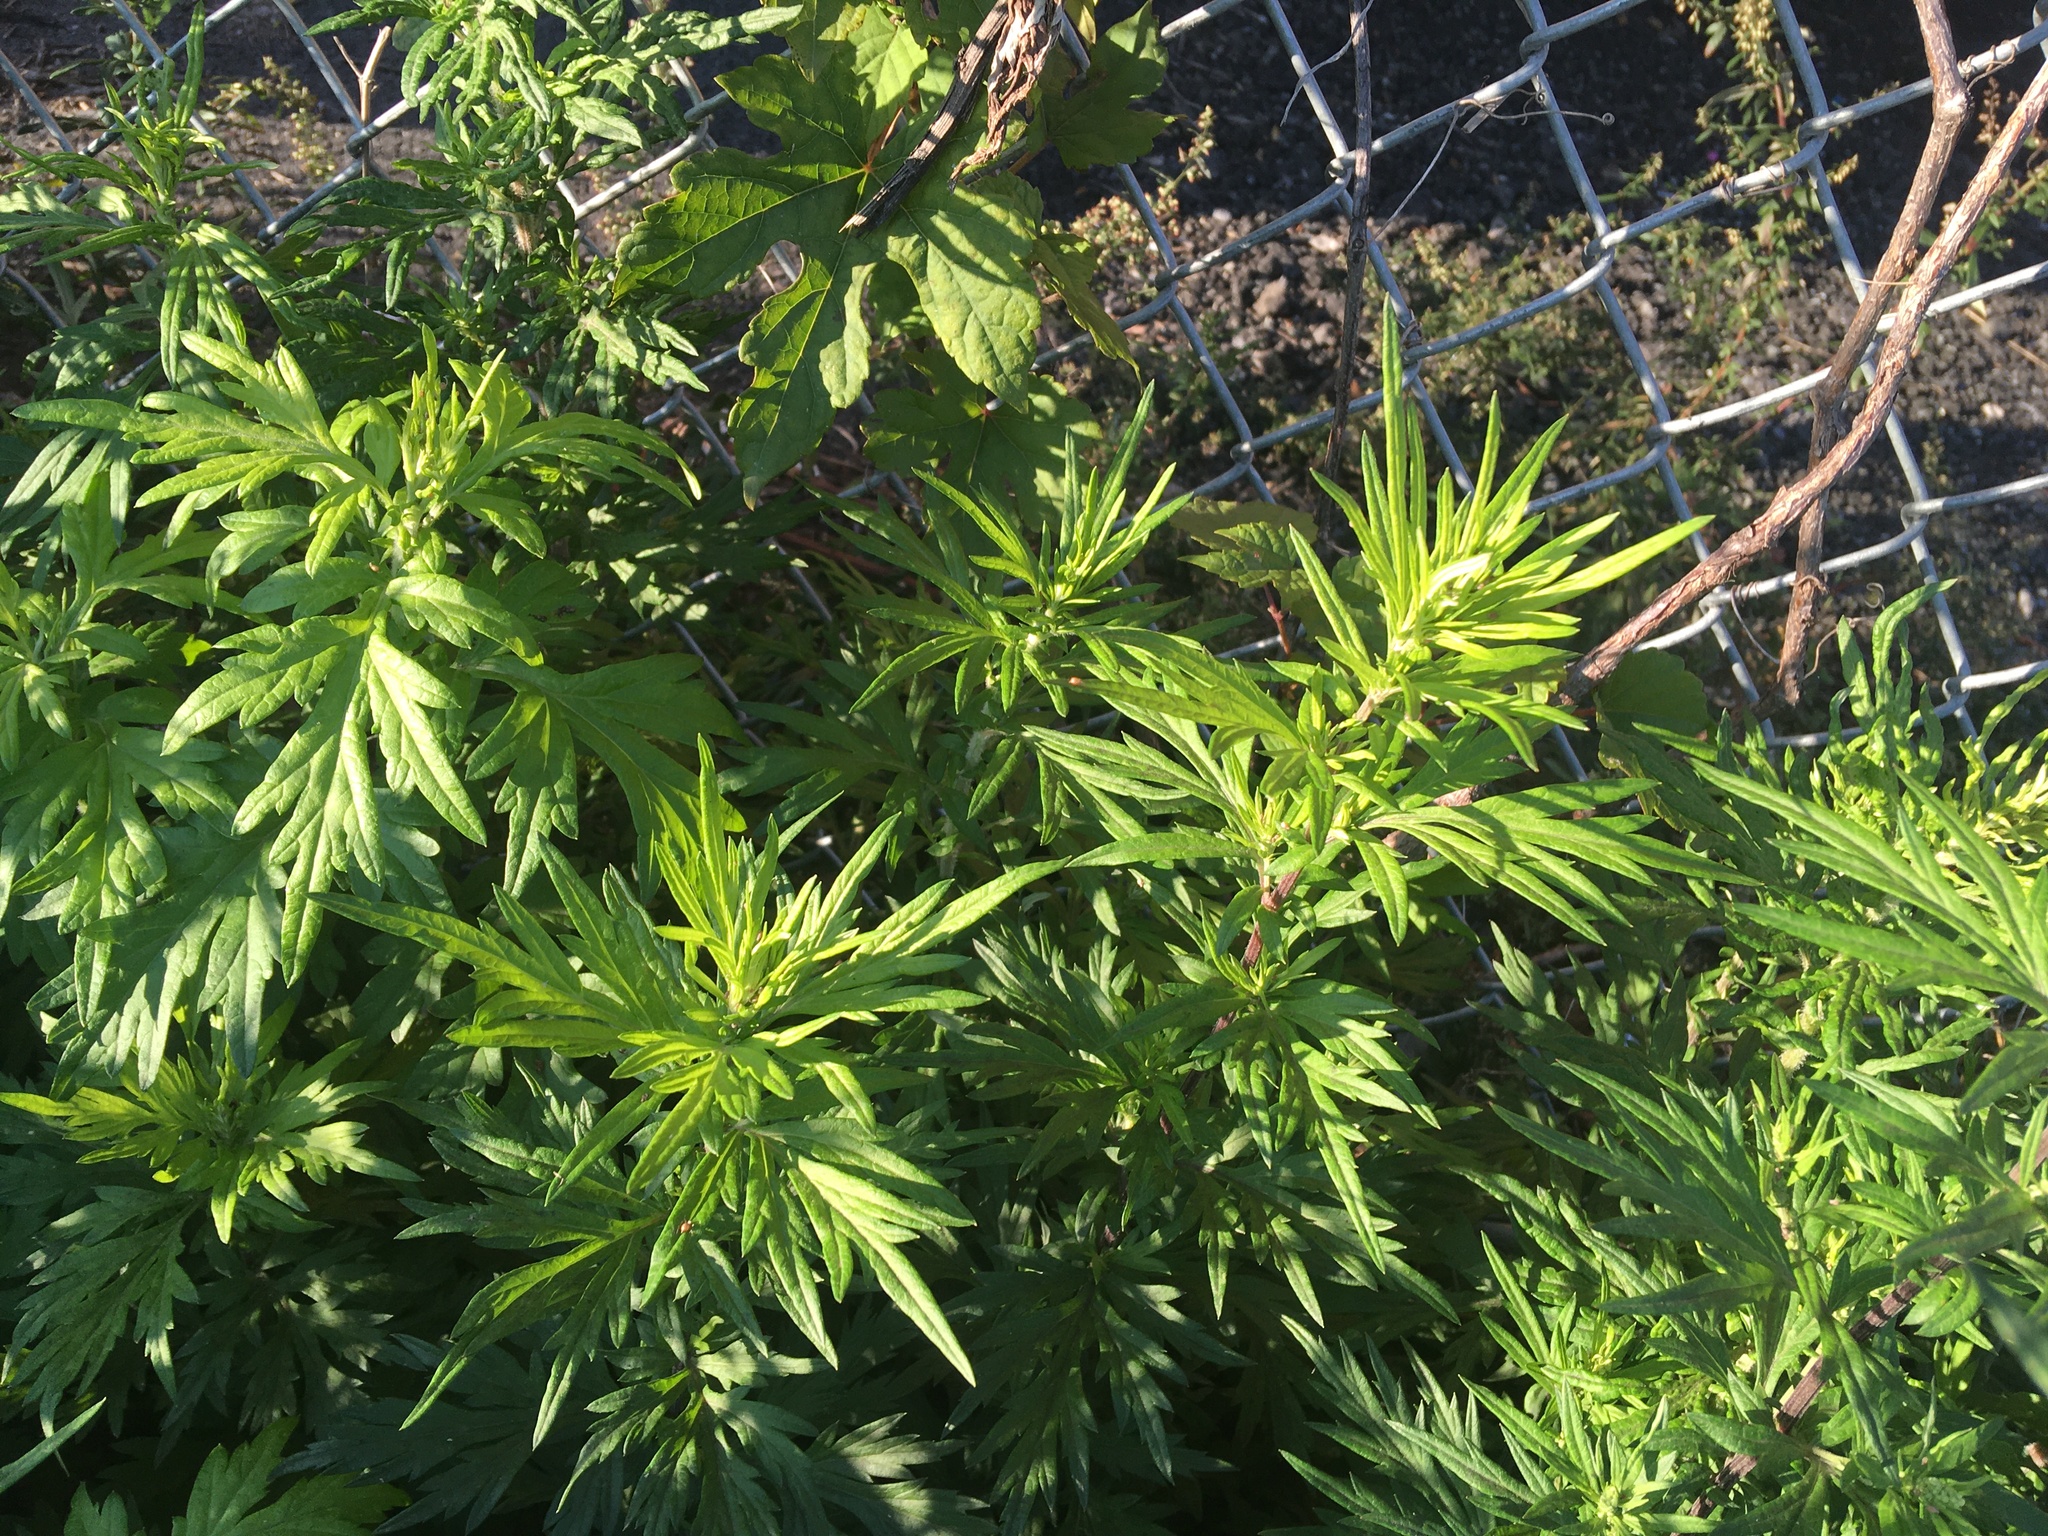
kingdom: Plantae
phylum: Tracheophyta
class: Magnoliopsida
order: Asterales
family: Asteraceae
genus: Artemisia
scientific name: Artemisia vulgaris
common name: Mugwort
